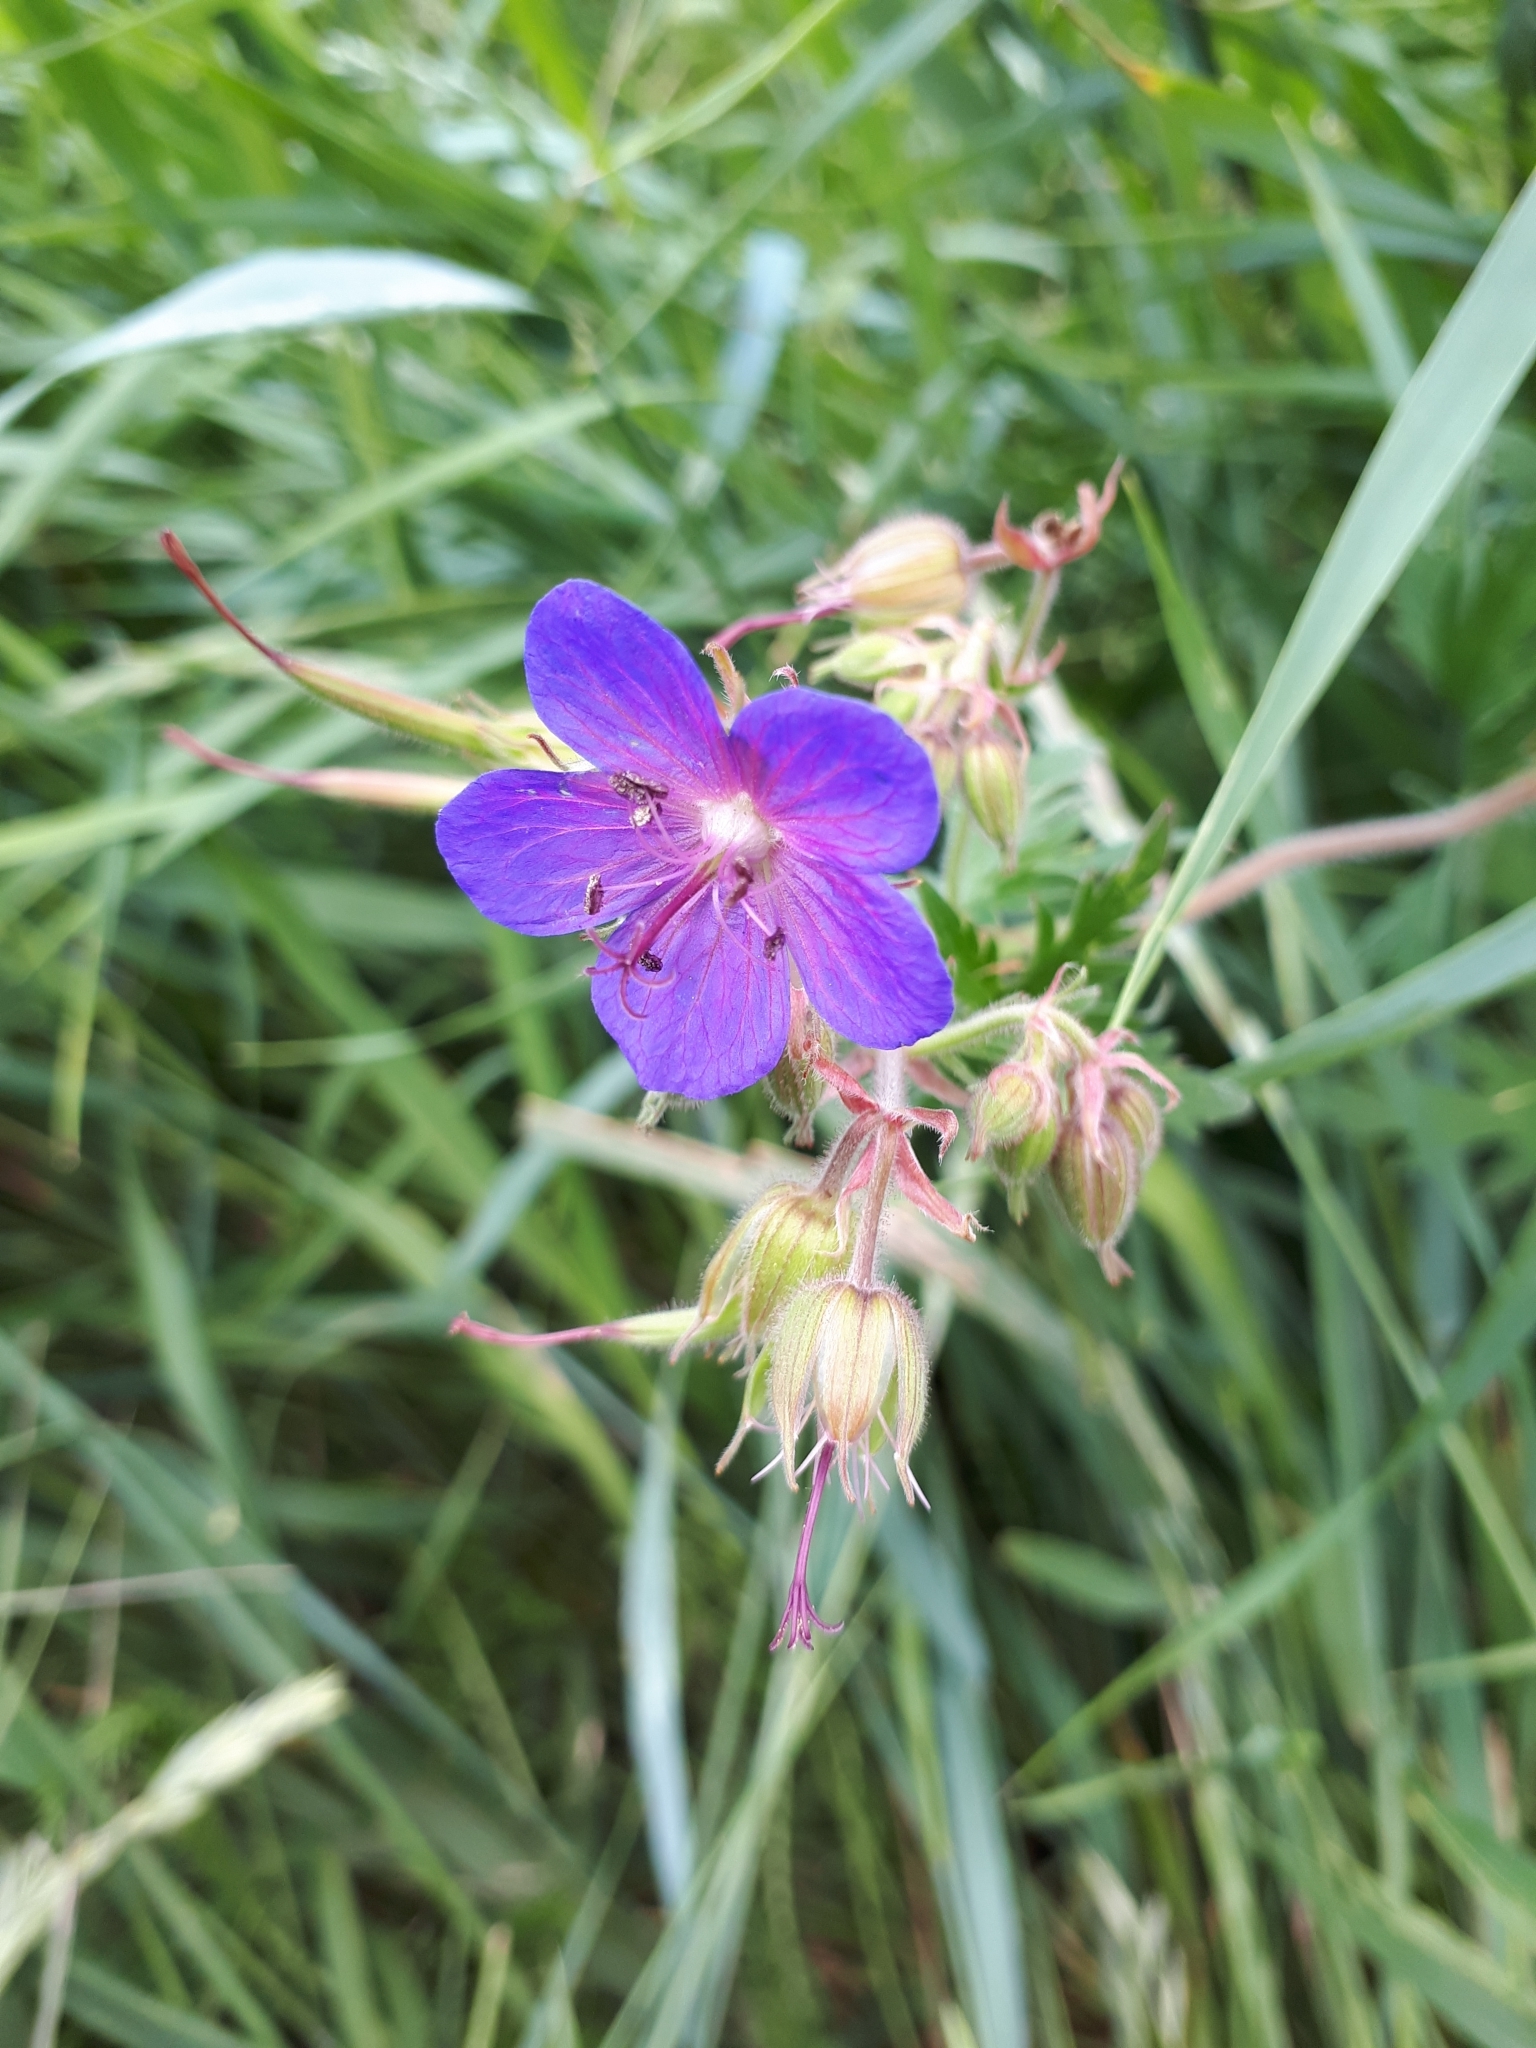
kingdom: Plantae
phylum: Tracheophyta
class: Magnoliopsida
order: Geraniales
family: Geraniaceae
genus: Geranium
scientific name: Geranium pratense
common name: Meadow crane's-bill
